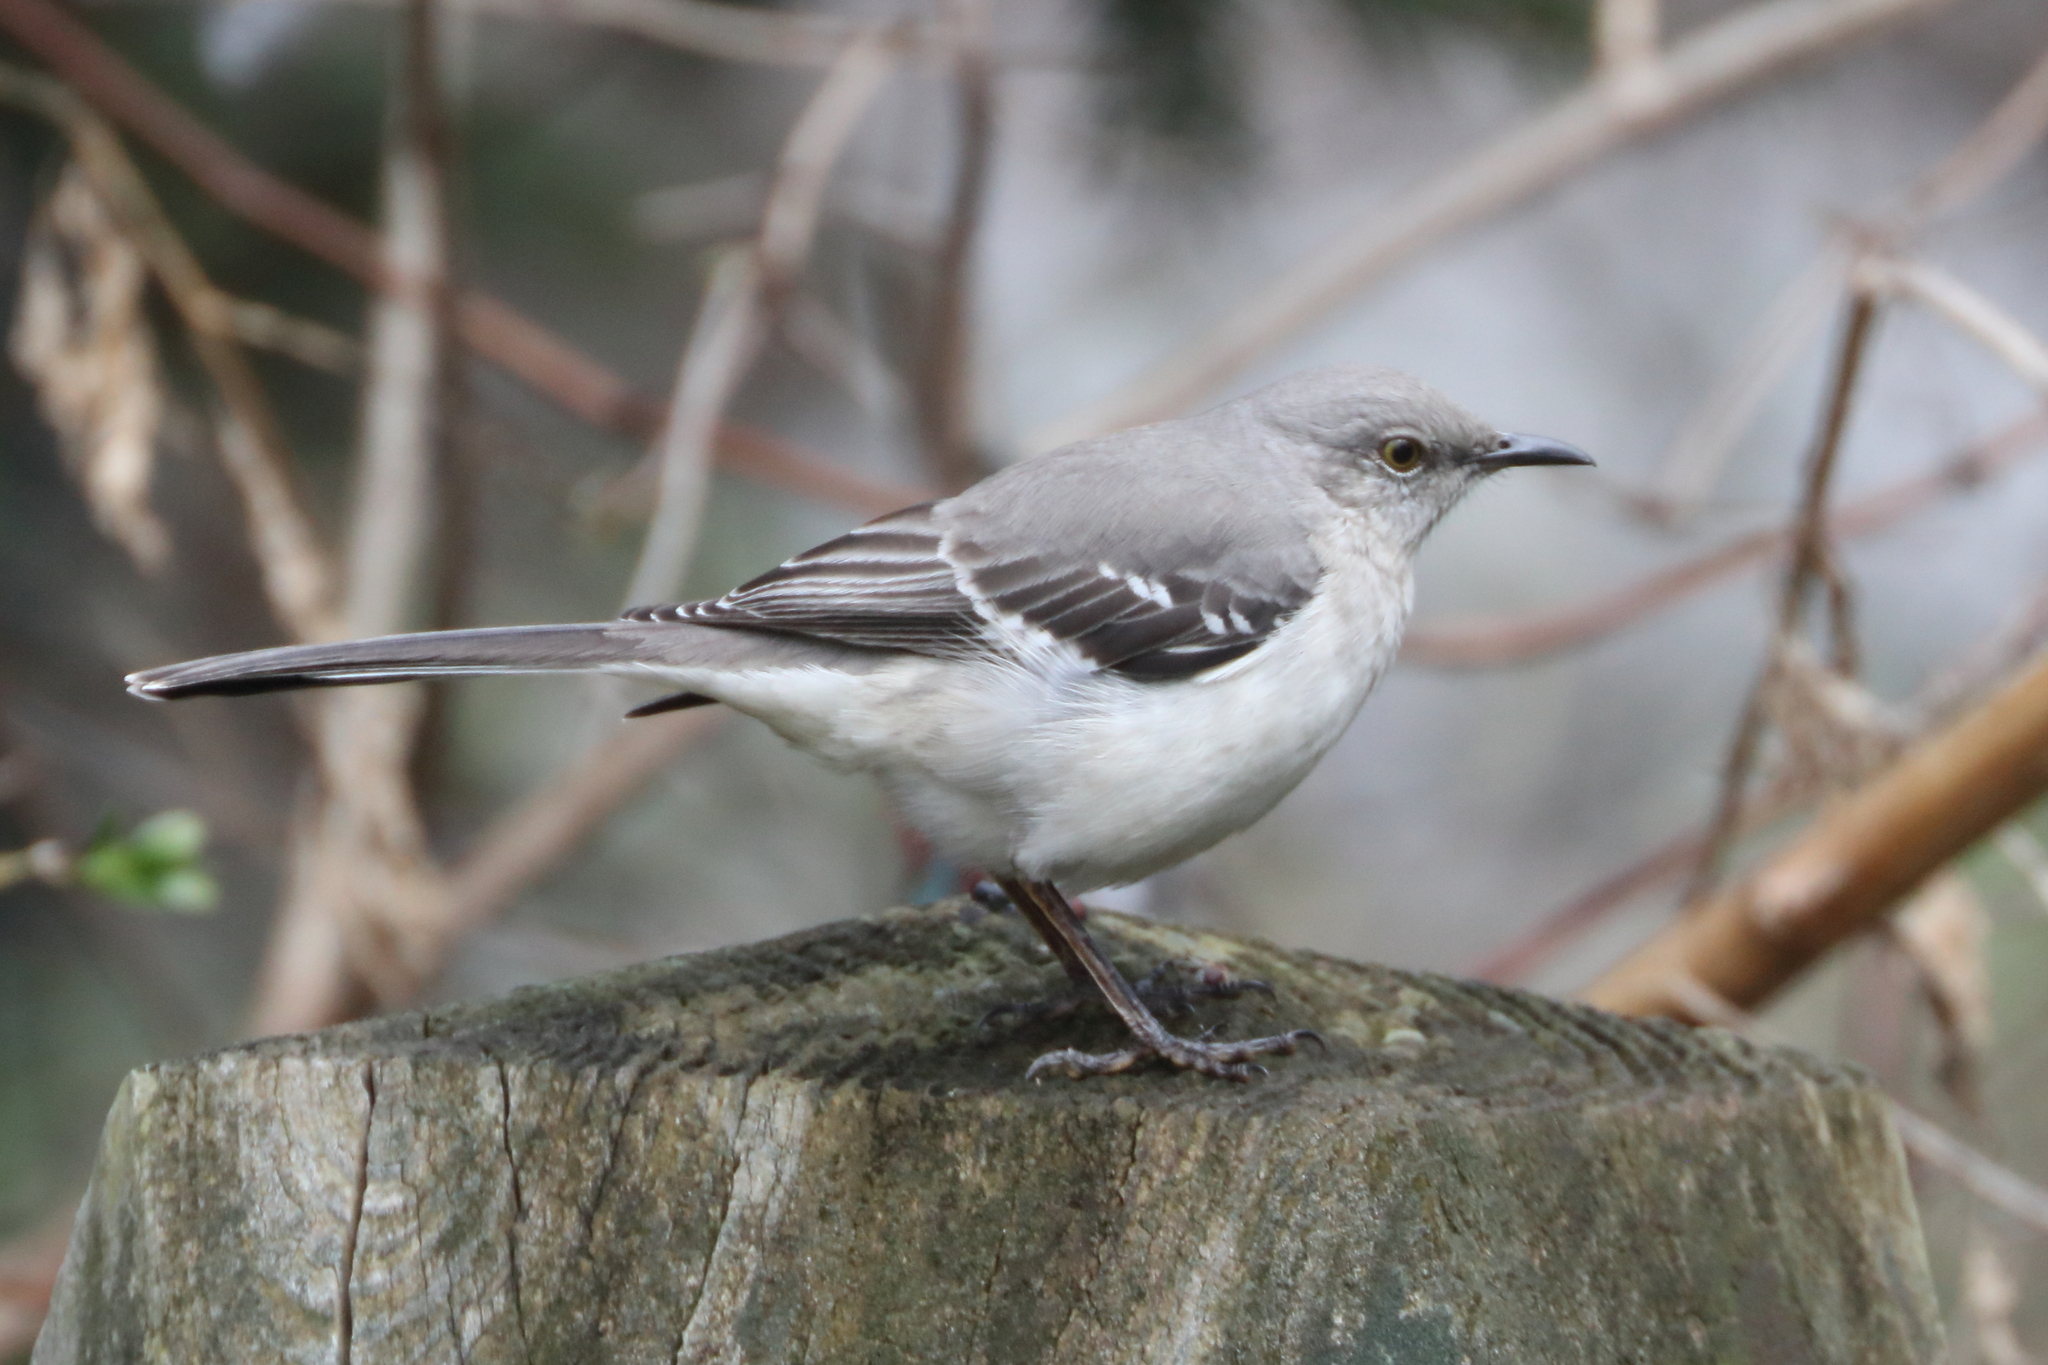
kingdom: Animalia
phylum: Chordata
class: Aves
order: Passeriformes
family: Mimidae
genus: Mimus
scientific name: Mimus polyglottos
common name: Northern mockingbird
